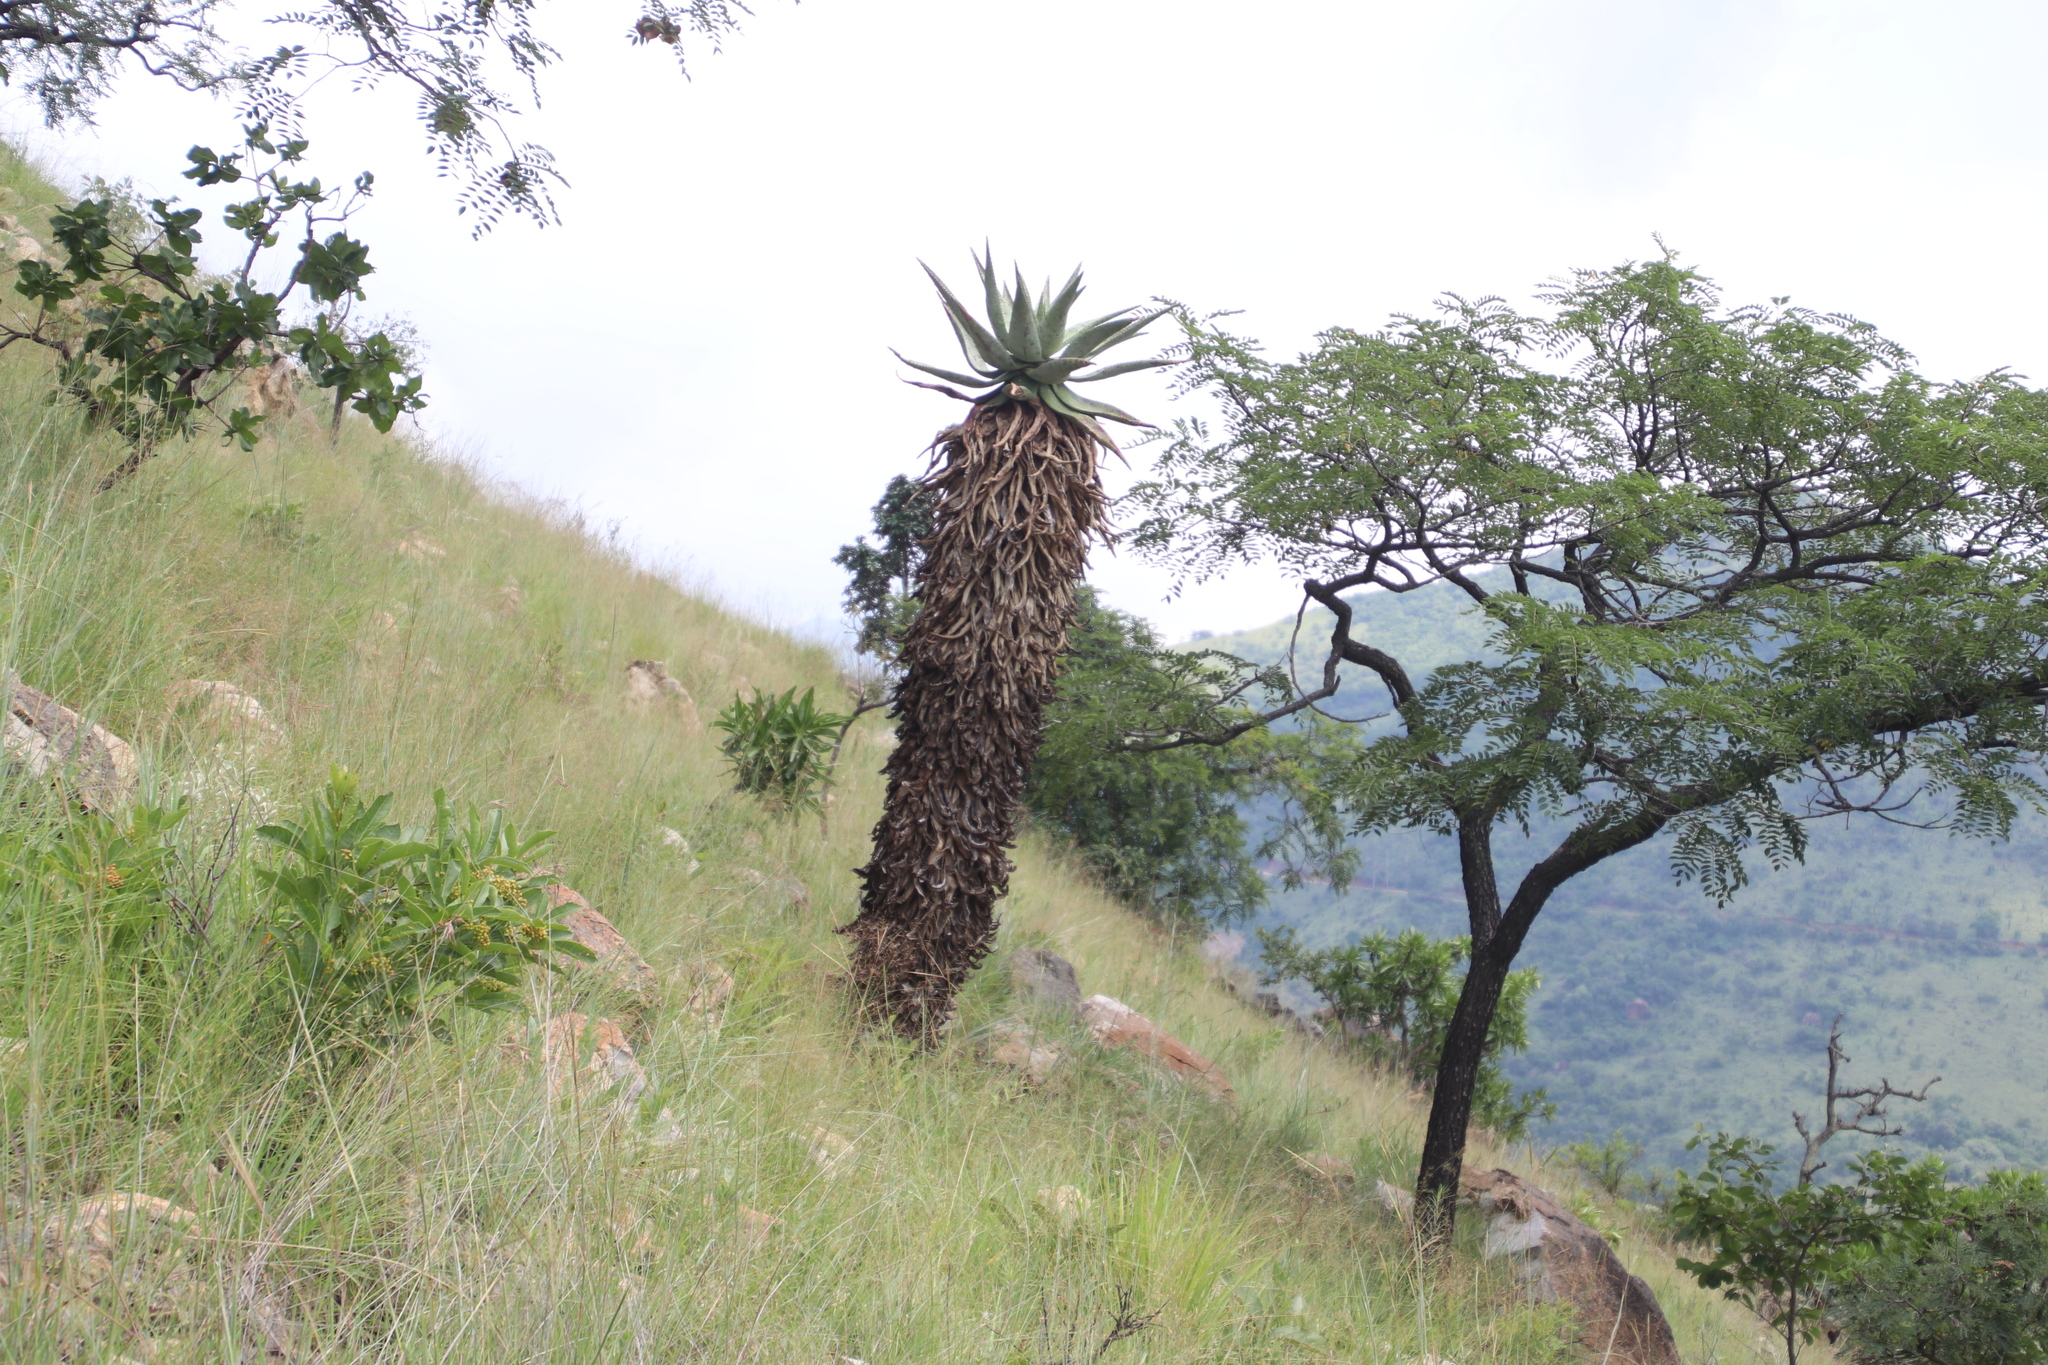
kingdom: Plantae
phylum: Tracheophyta
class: Liliopsida
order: Asparagales
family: Asphodelaceae
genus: Aloe
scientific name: Aloe marlothii
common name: Flat-flowered aloe
